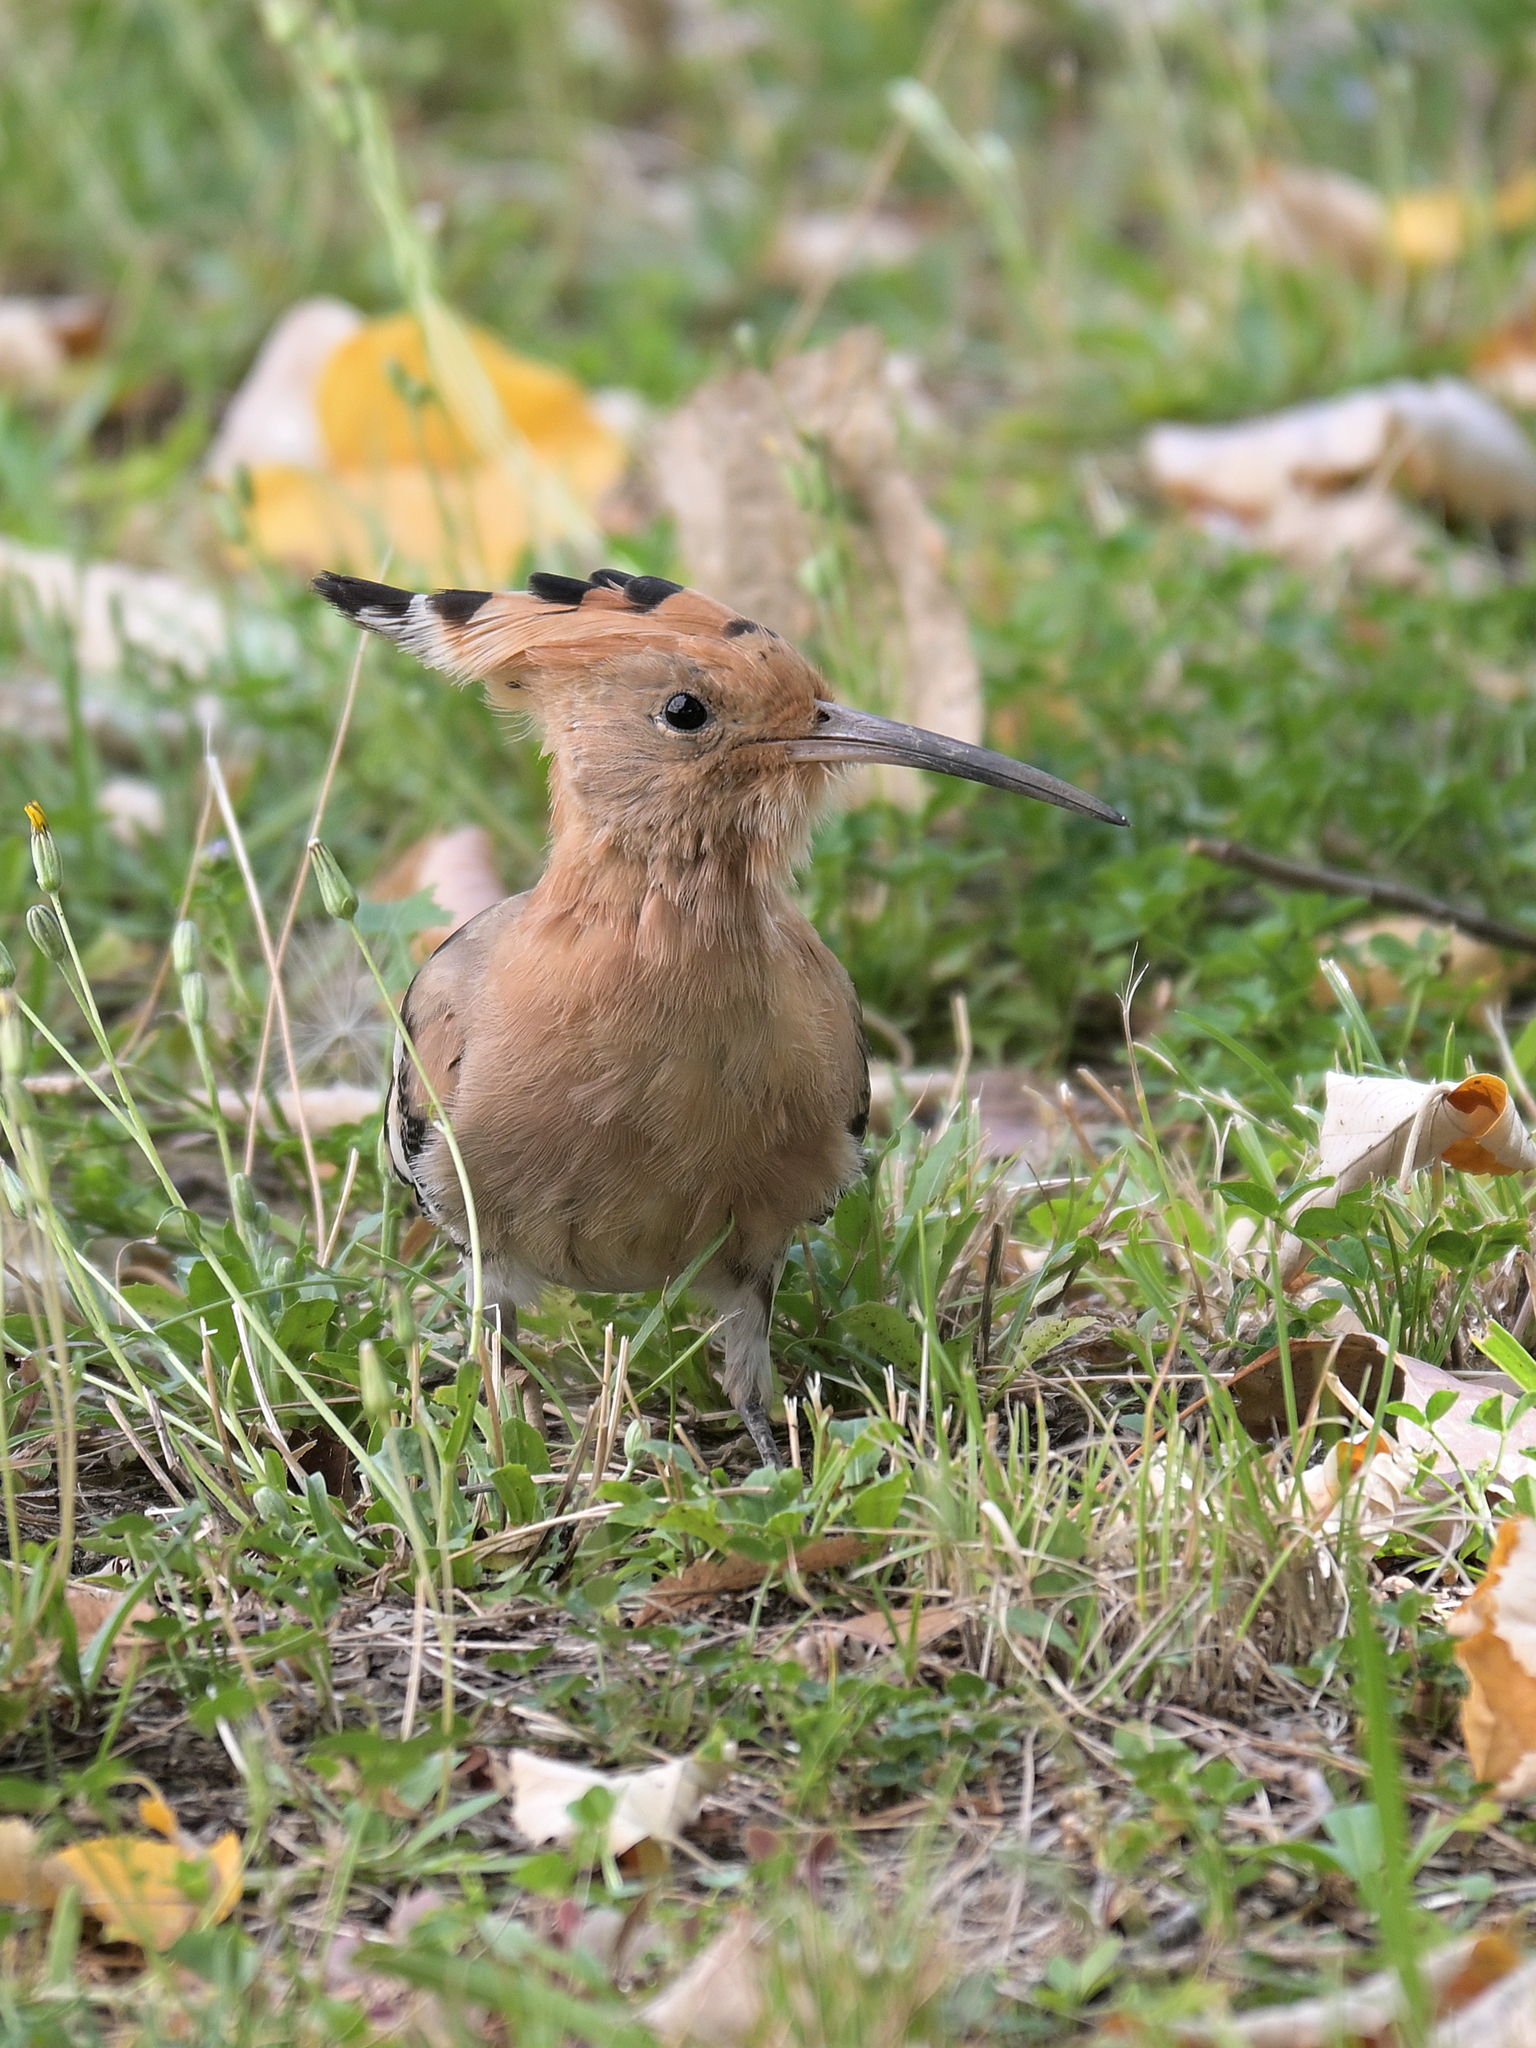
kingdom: Animalia
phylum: Chordata
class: Aves
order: Bucerotiformes
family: Upupidae
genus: Upupa
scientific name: Upupa epops
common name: Eurasian hoopoe
